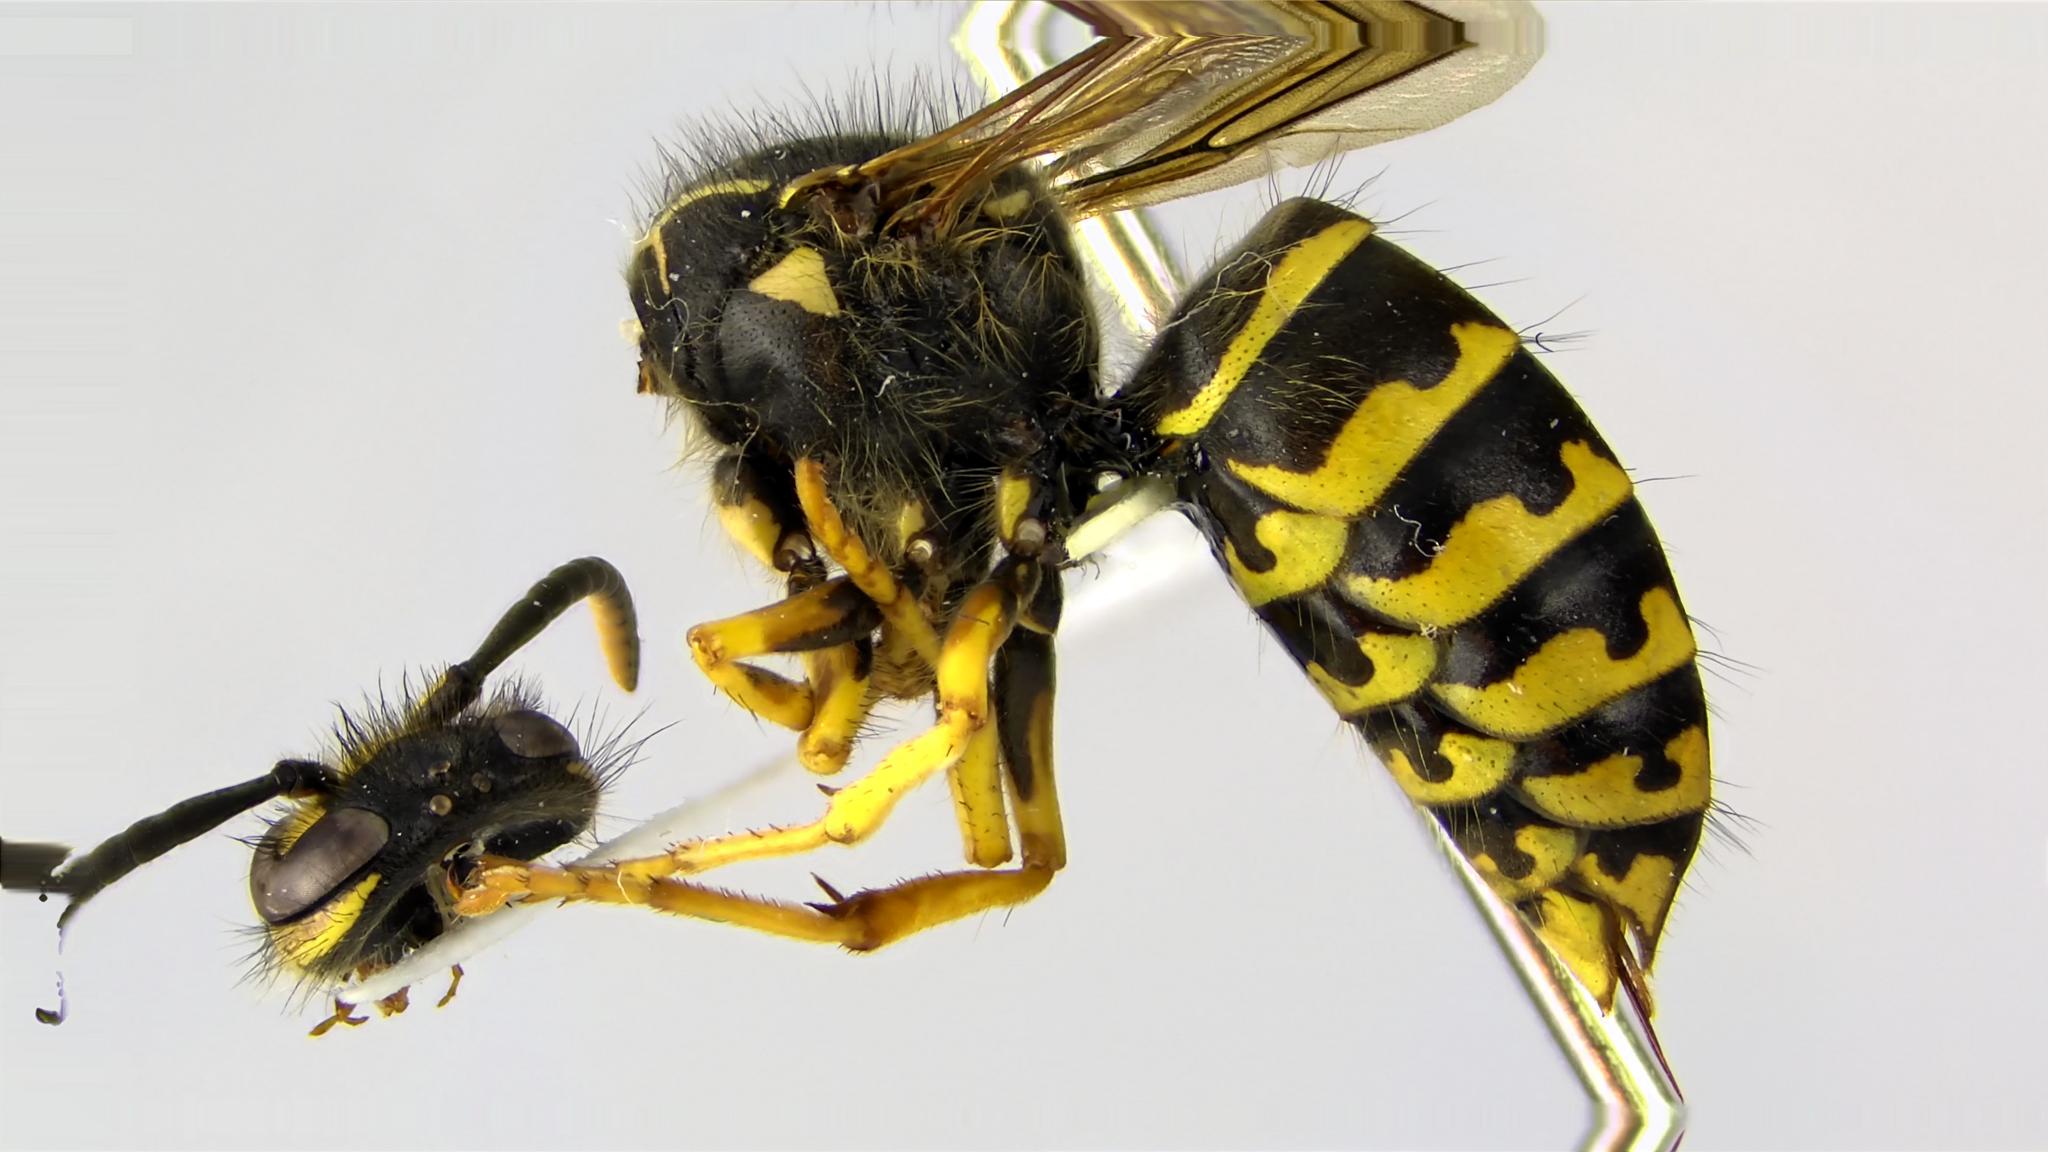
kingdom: Animalia
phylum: Arthropoda
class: Insecta
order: Hymenoptera
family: Vespidae
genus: Dolichovespula
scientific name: Dolichovespula arenaria
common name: Aerial yellowjacket
